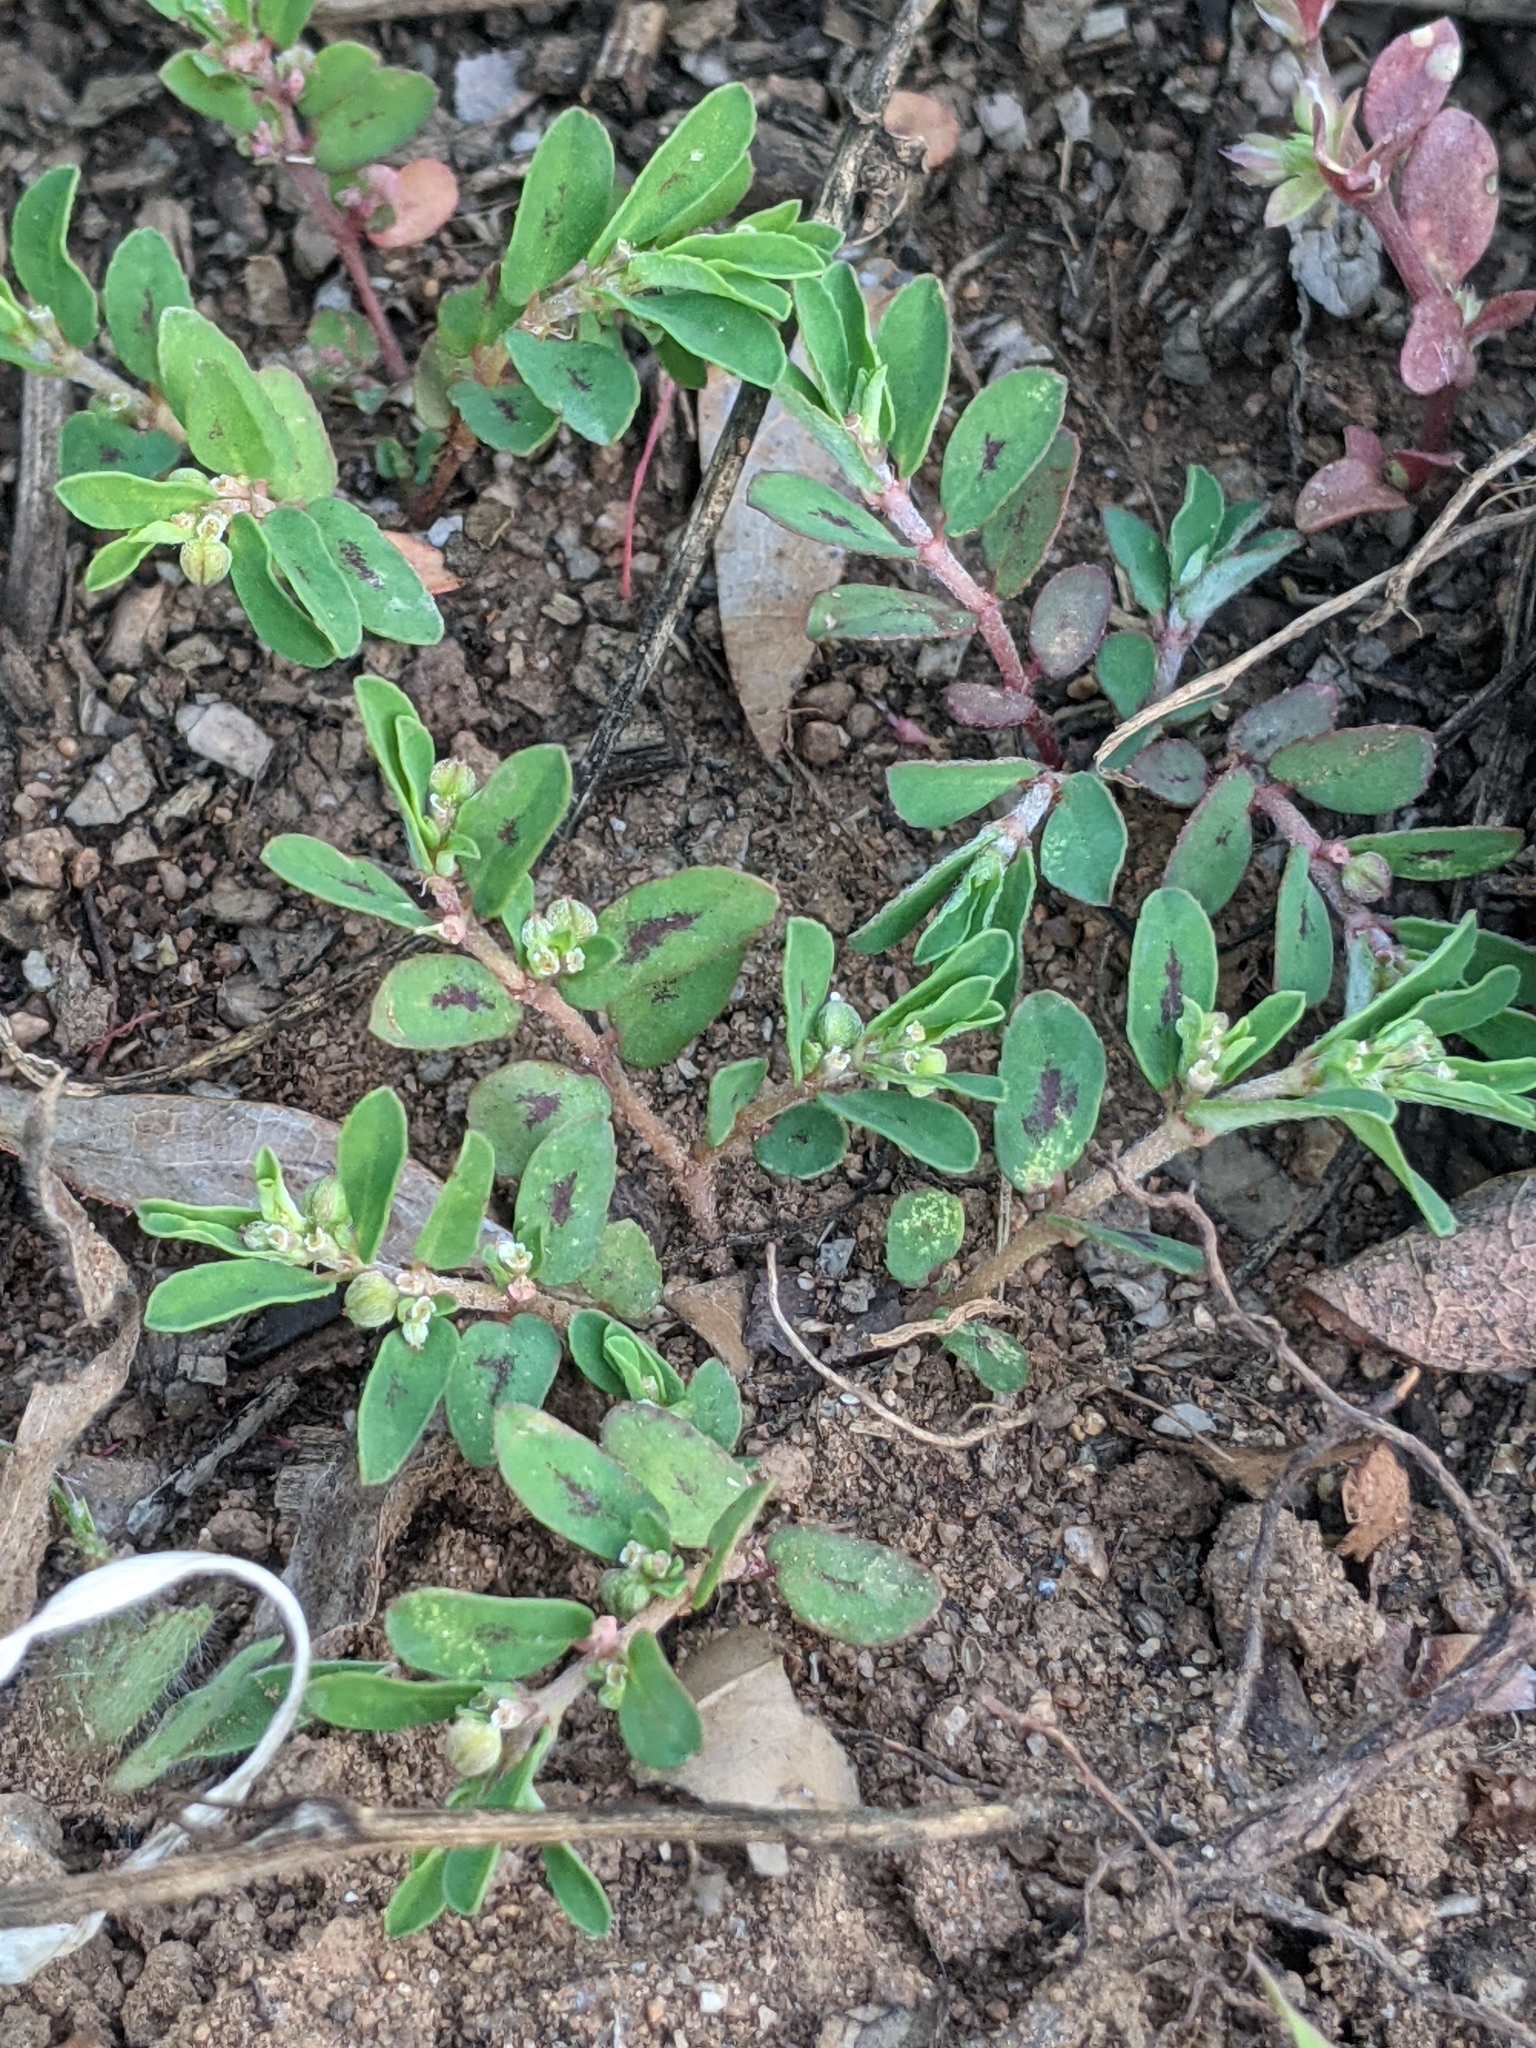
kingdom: Plantae
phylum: Tracheophyta
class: Magnoliopsida
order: Malpighiales
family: Euphorbiaceae
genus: Euphorbia
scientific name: Euphorbia maculata
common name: Spotted spurge
